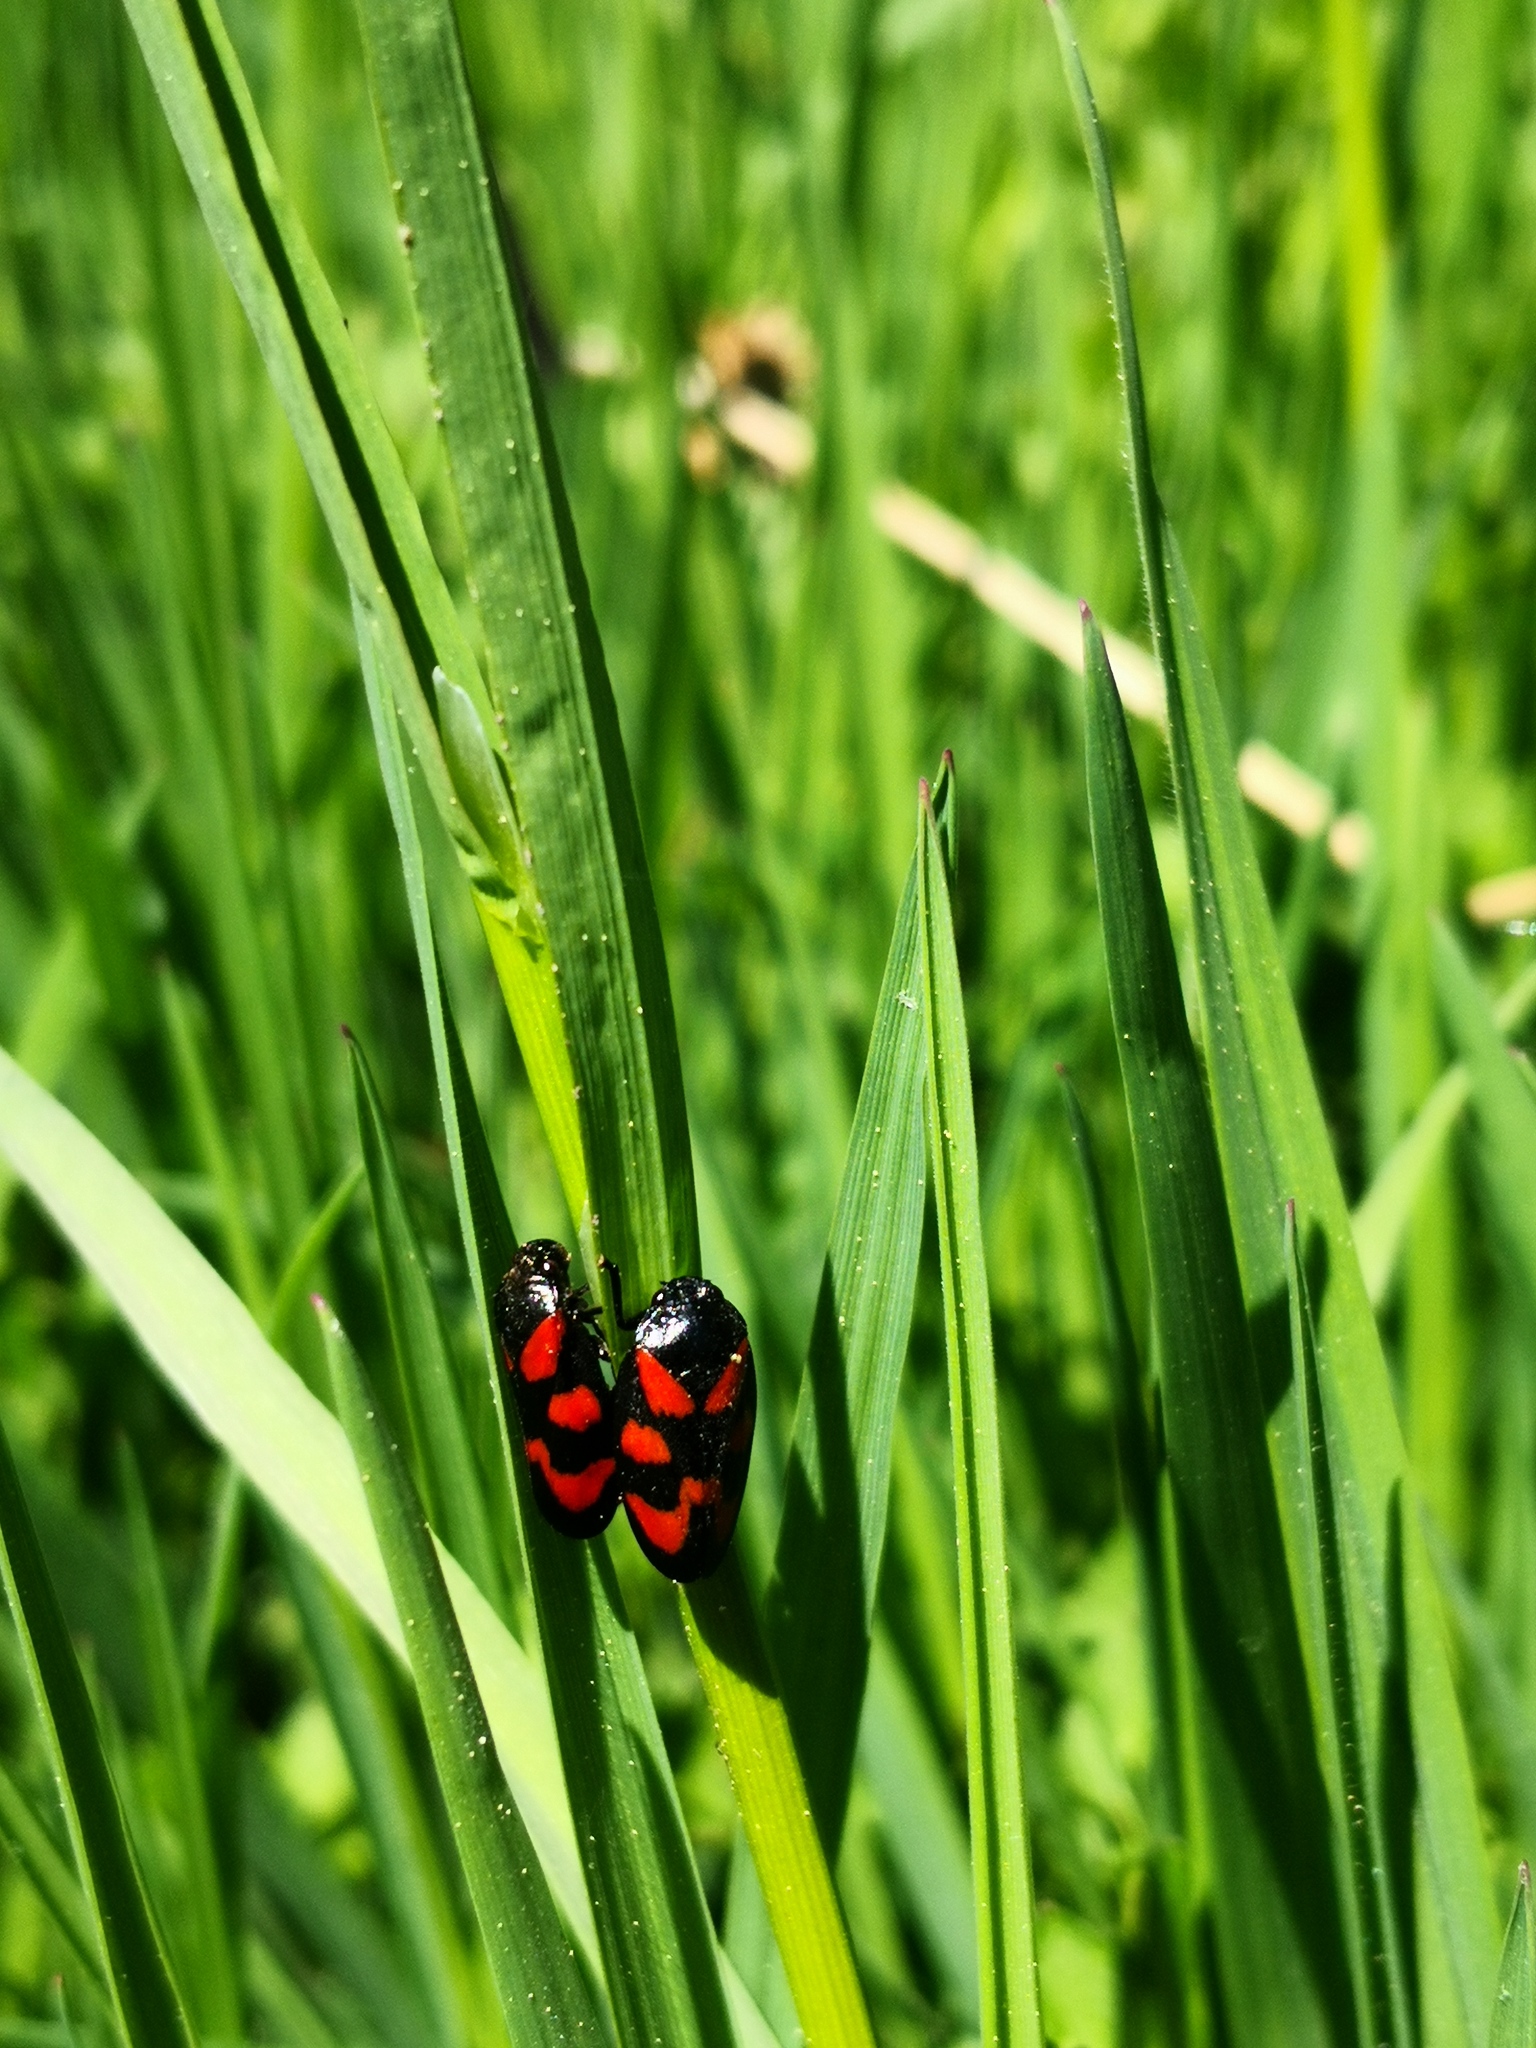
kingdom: Animalia
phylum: Arthropoda
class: Insecta
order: Hemiptera
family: Cercopidae
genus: Cercopis
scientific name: Cercopis vulnerata
